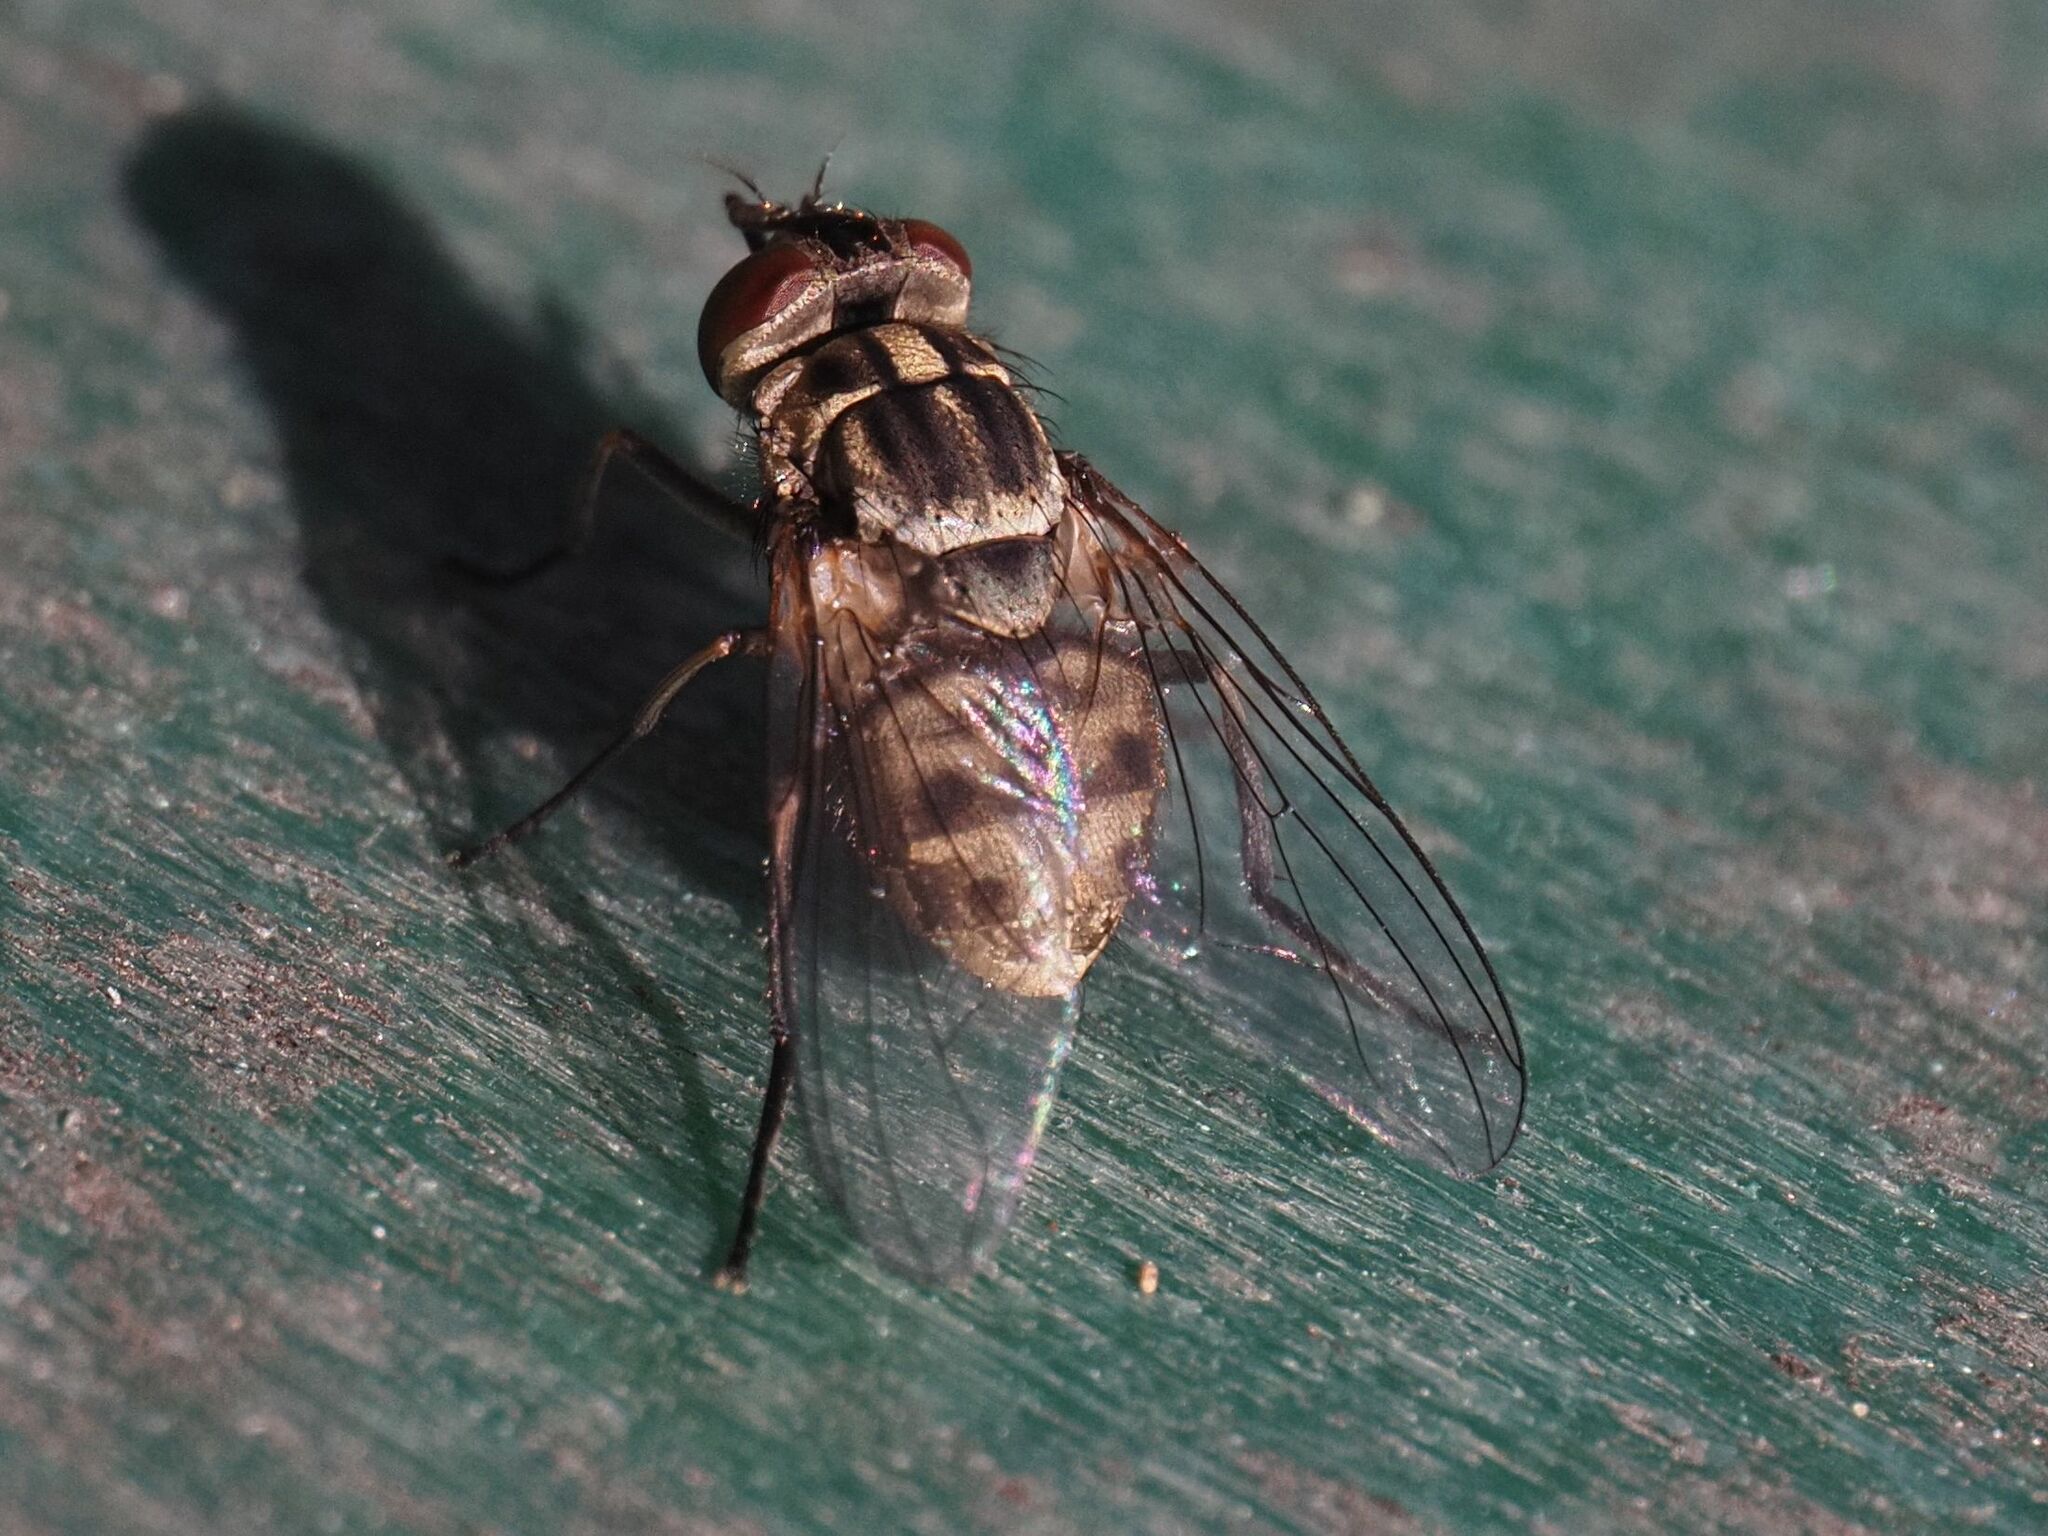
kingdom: Animalia
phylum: Arthropoda
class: Insecta
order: Diptera
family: Muscidae
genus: Stomoxys
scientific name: Stomoxys calcitrans
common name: Stable fly
